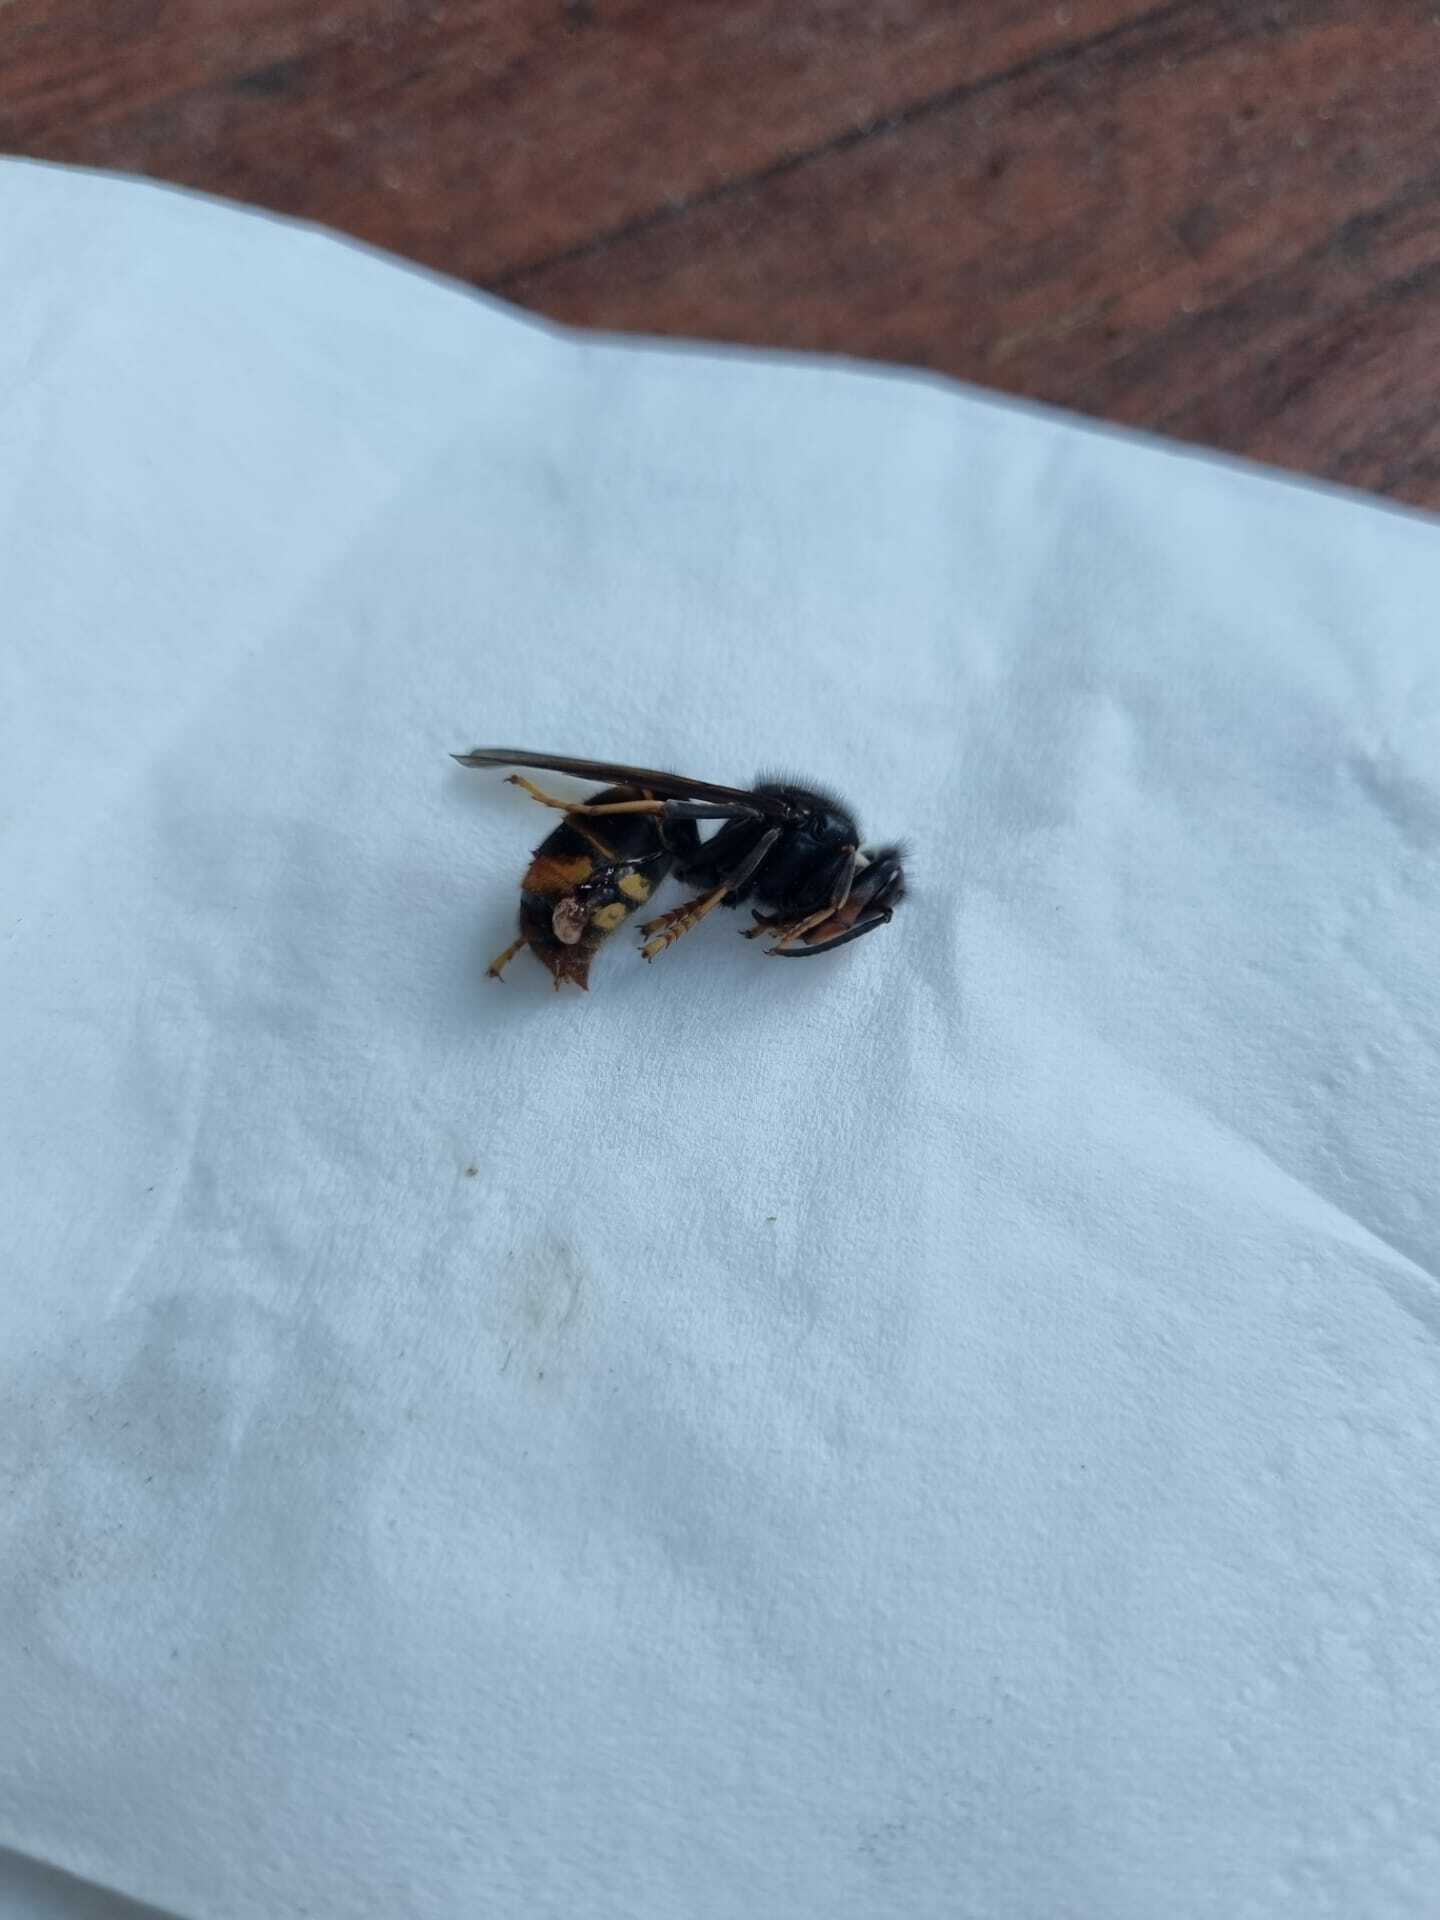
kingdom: Animalia
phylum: Arthropoda
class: Insecta
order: Hymenoptera
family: Vespidae
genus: Vespa
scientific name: Vespa velutina
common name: Asian hornet
